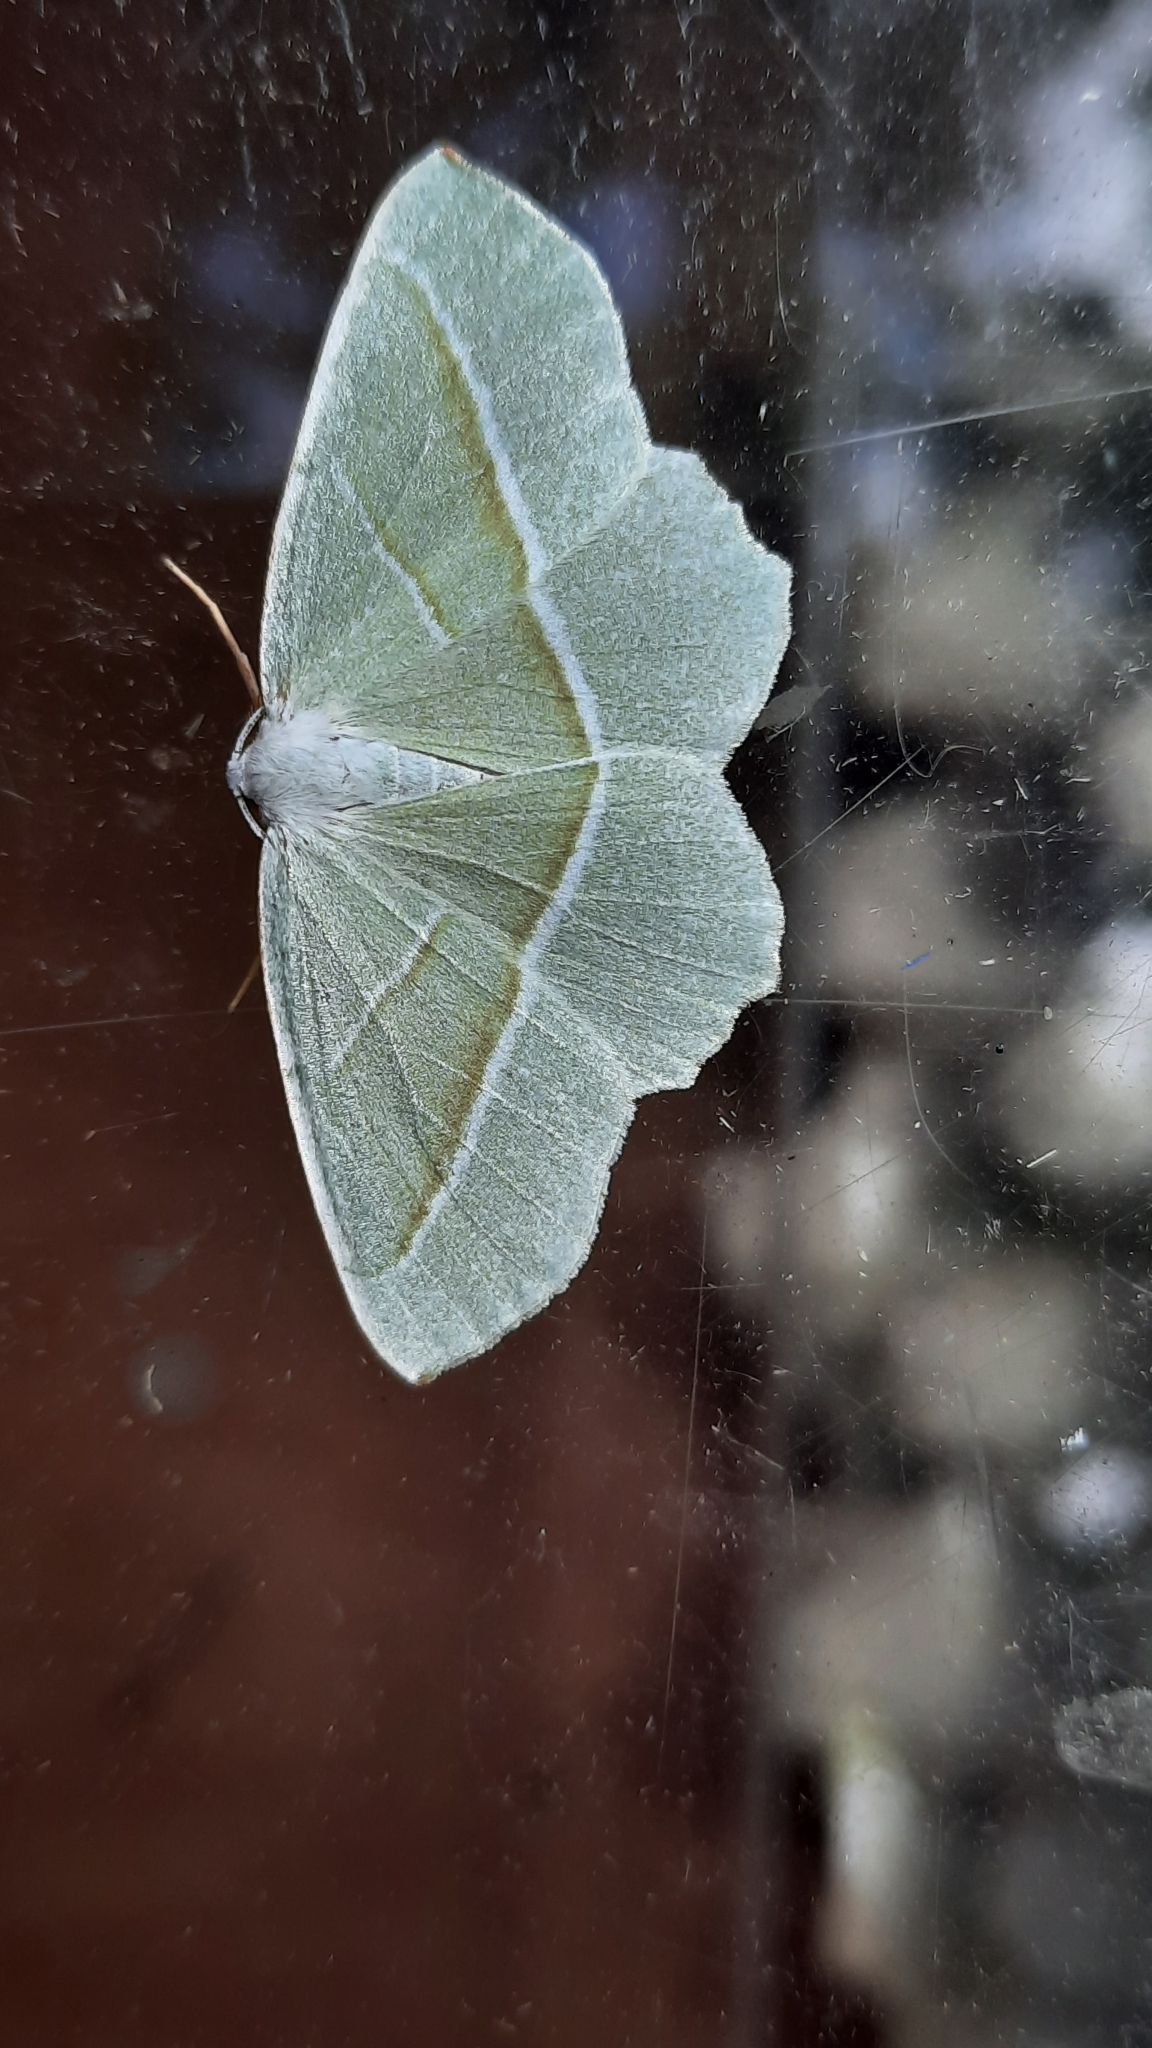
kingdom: Animalia
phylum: Arthropoda
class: Insecta
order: Lepidoptera
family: Geometridae
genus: Campaea
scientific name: Campaea margaritaria
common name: Light emerald
